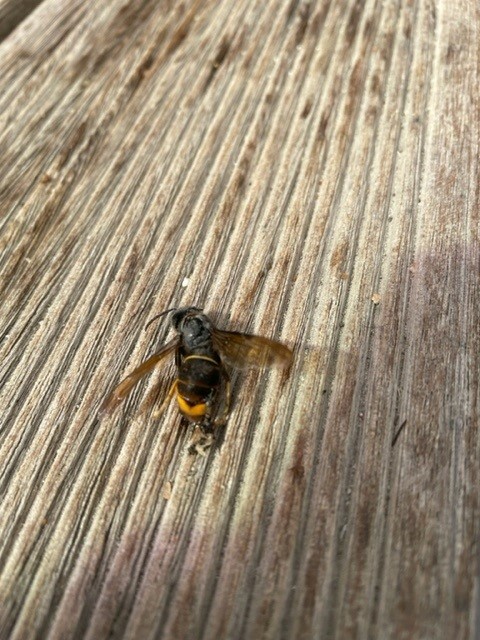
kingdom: Animalia
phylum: Arthropoda
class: Insecta
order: Hymenoptera
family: Vespidae
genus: Vespa
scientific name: Vespa velutina
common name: Asian hornet
